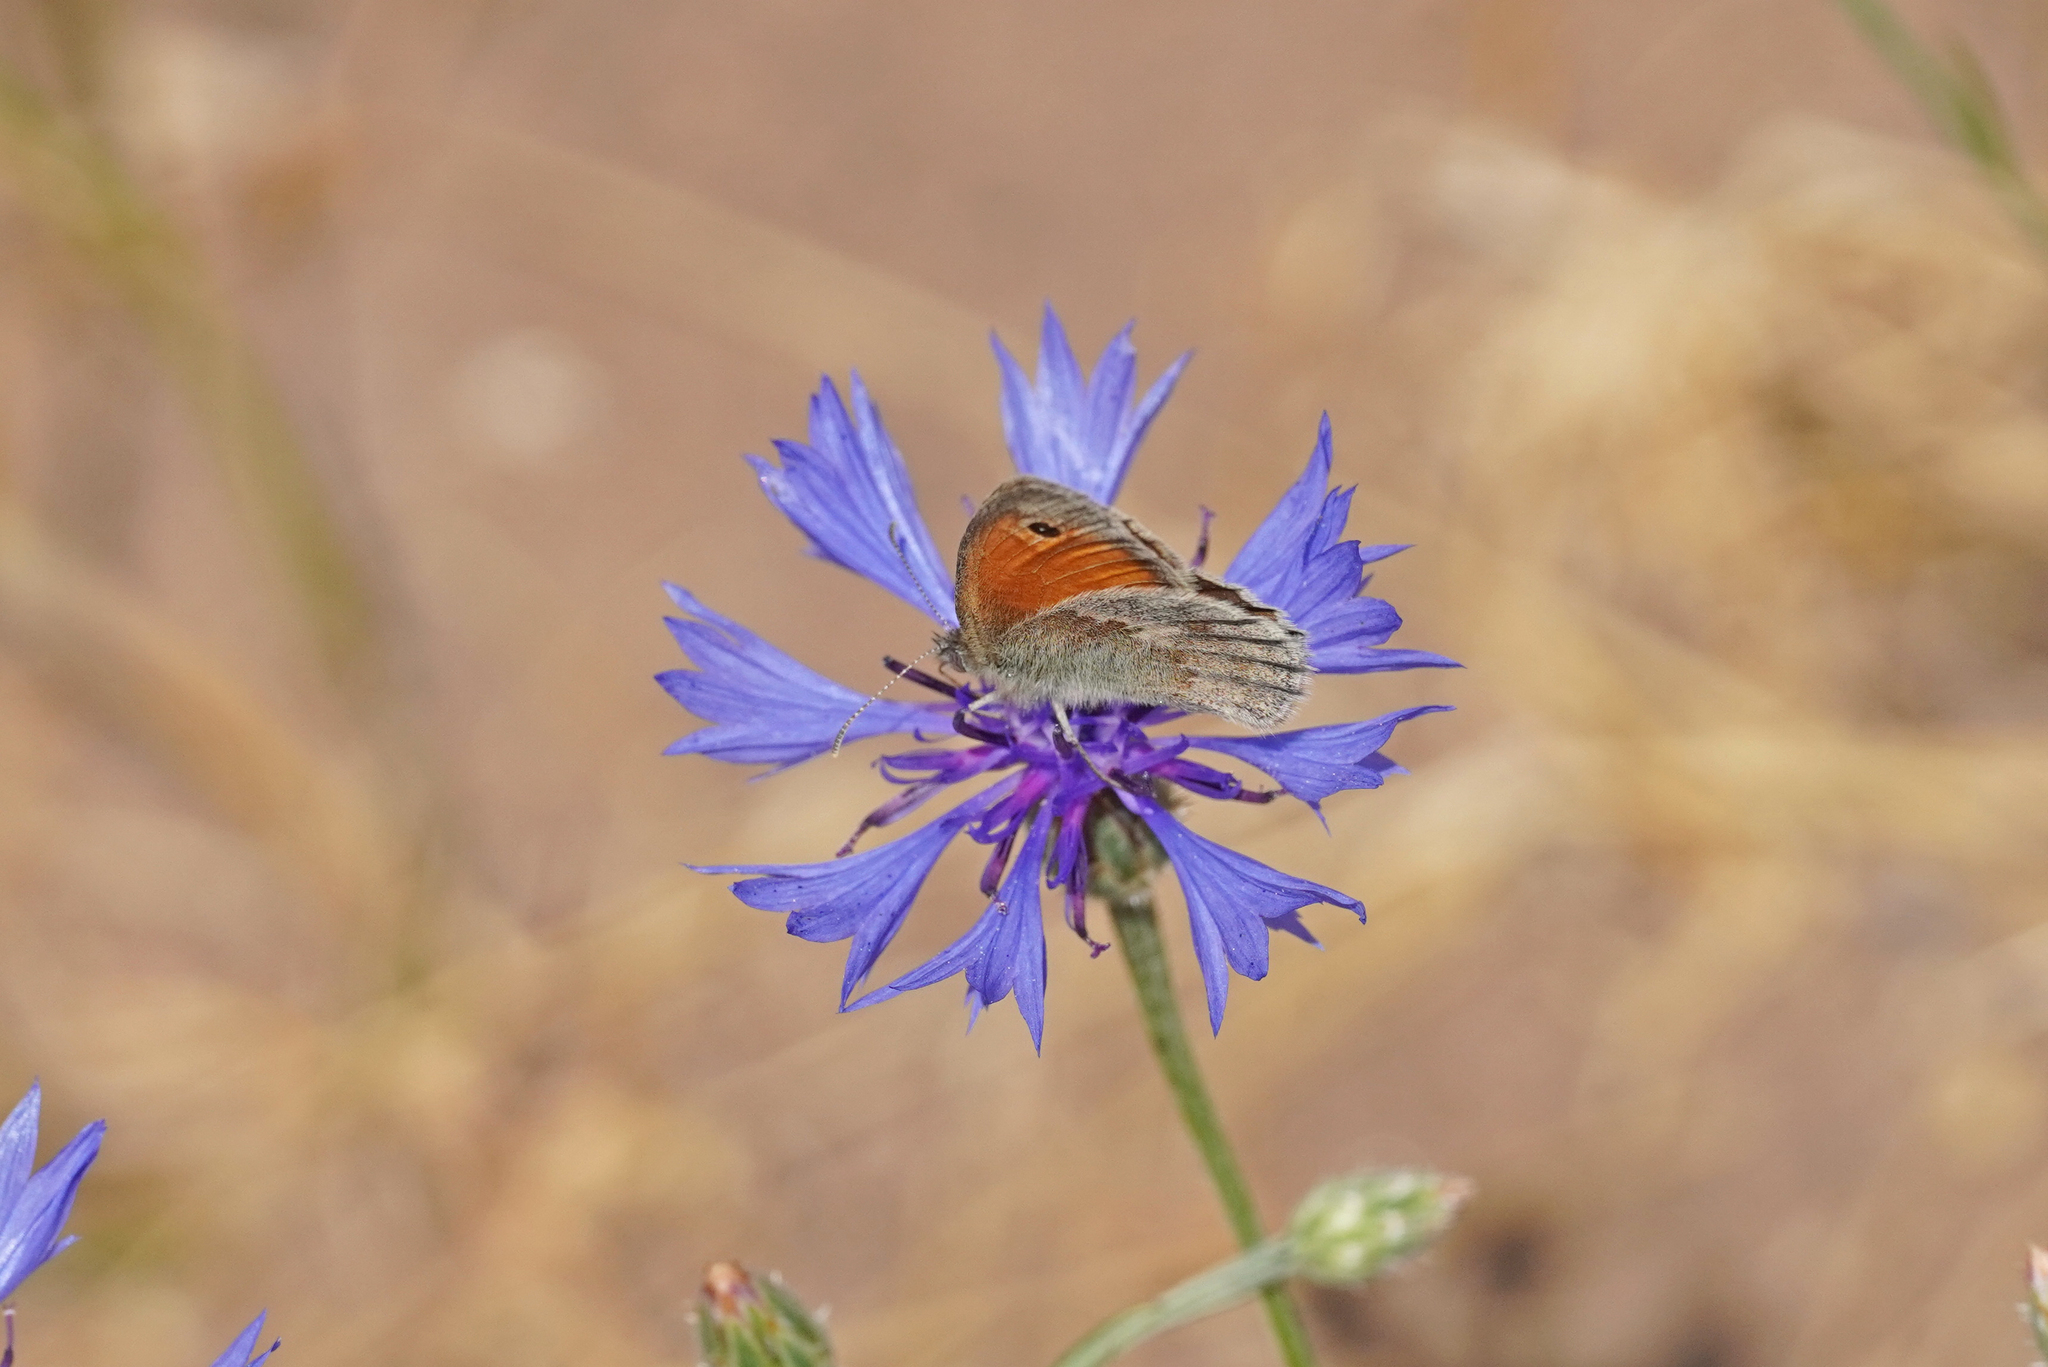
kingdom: Animalia
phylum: Arthropoda
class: Insecta
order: Lepidoptera
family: Nymphalidae
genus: Coenonympha
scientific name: Coenonympha pamphilus
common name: Small heath
